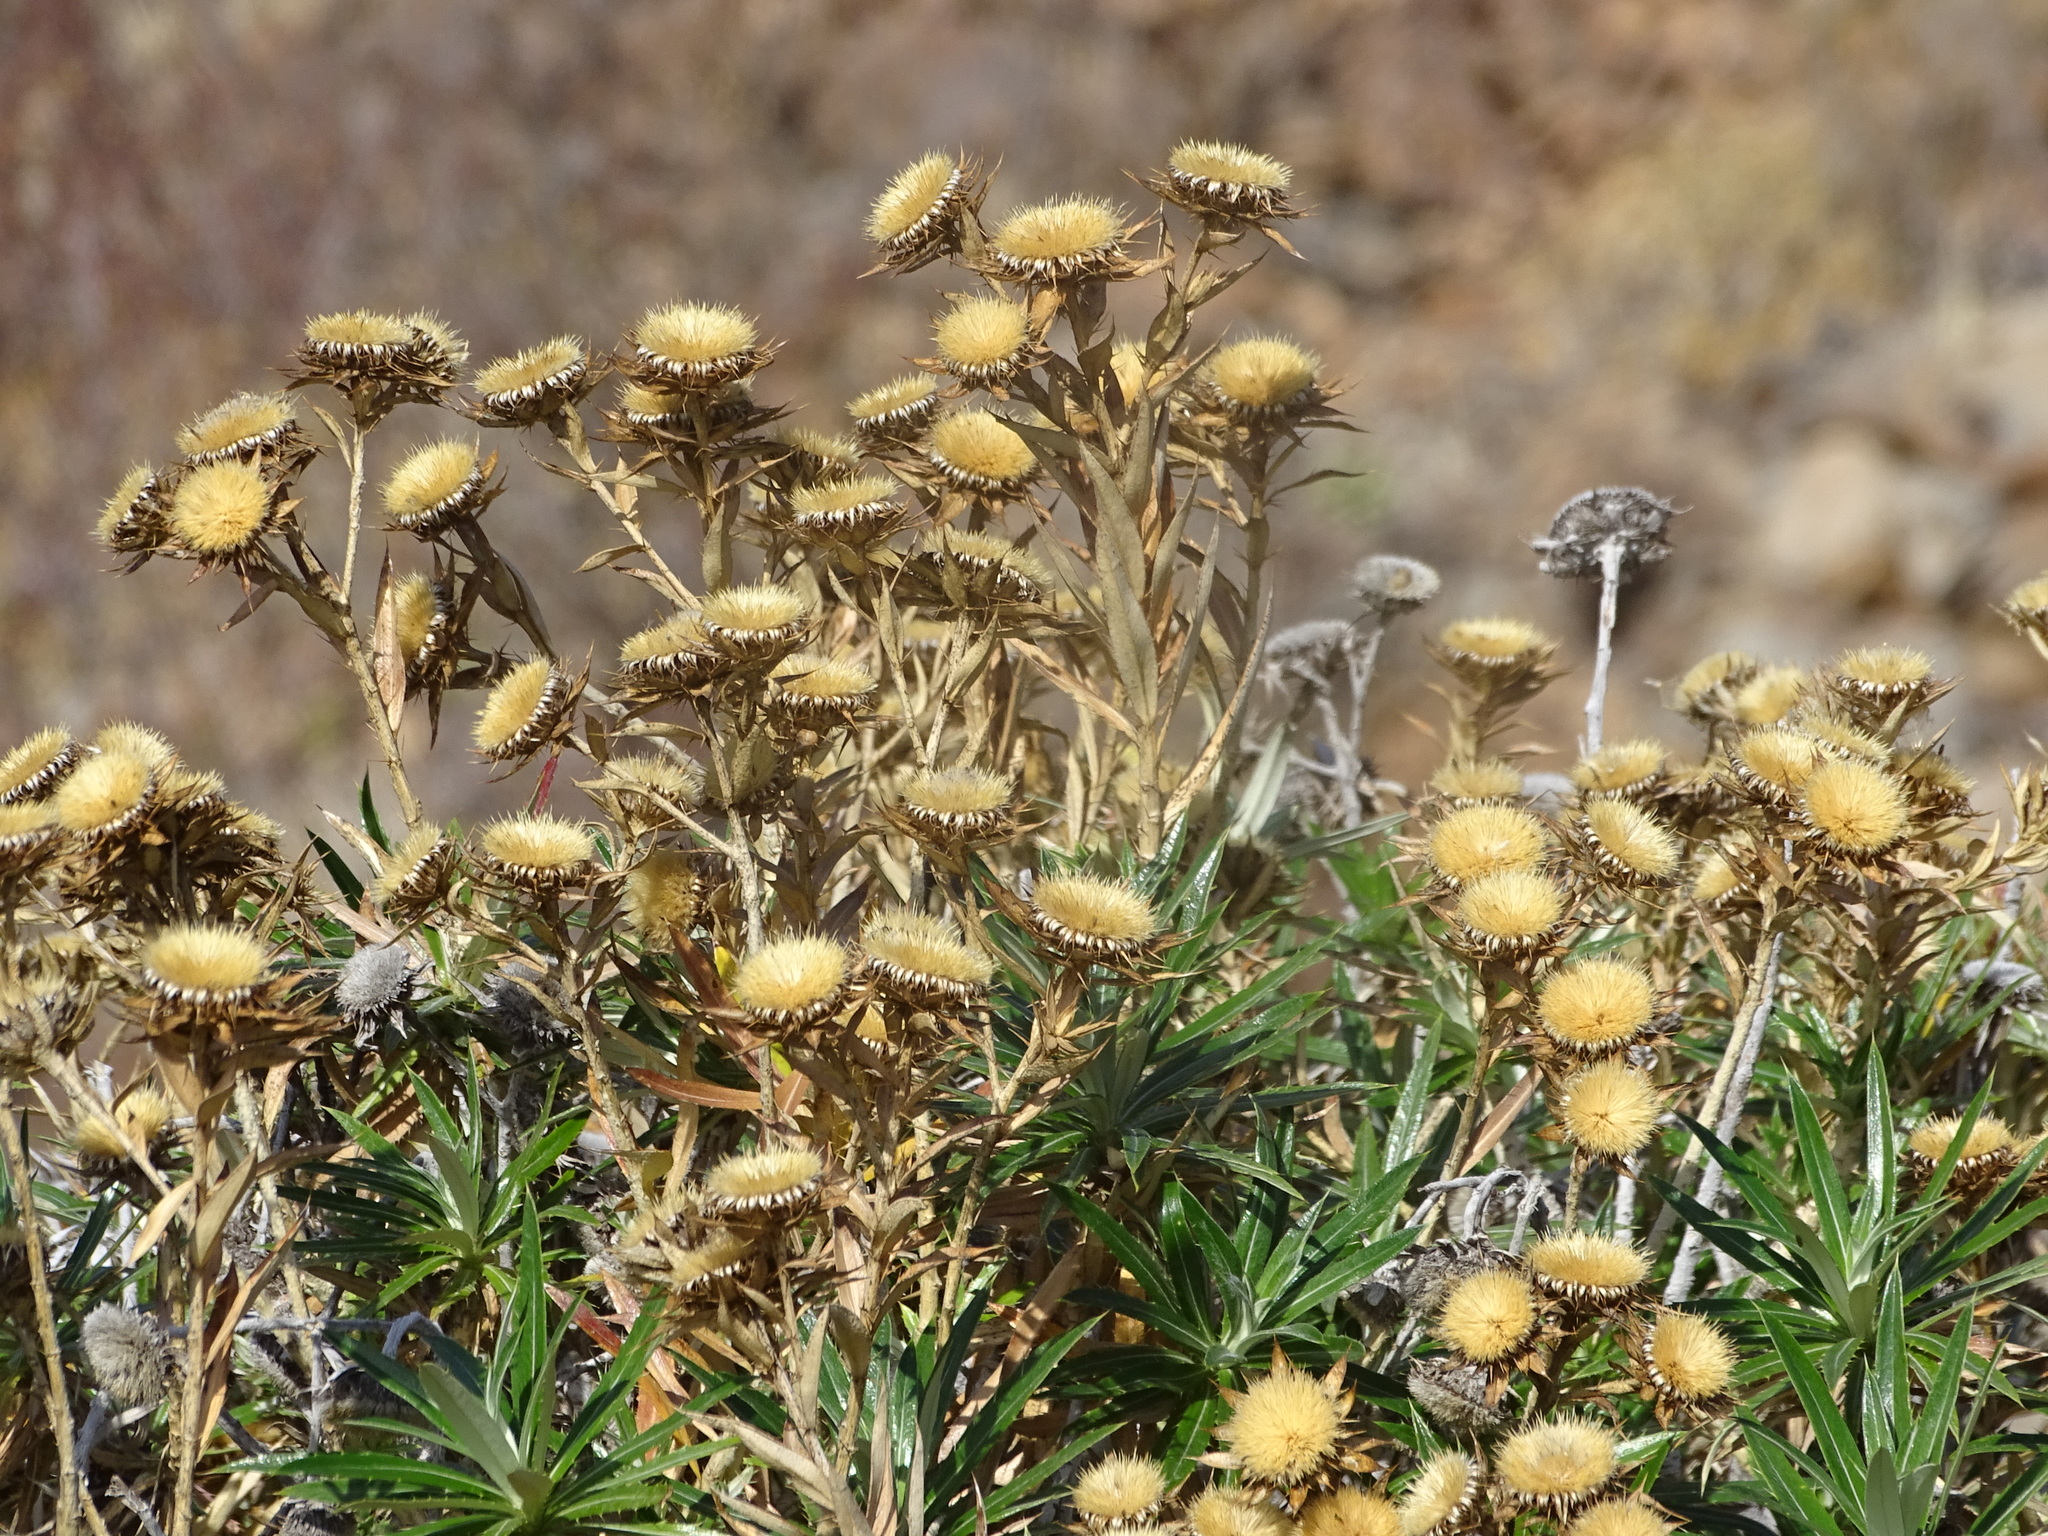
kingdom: Plantae
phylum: Tracheophyta
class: Magnoliopsida
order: Asterales
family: Asteraceae
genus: Carlina
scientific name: Carlina salicifolia
